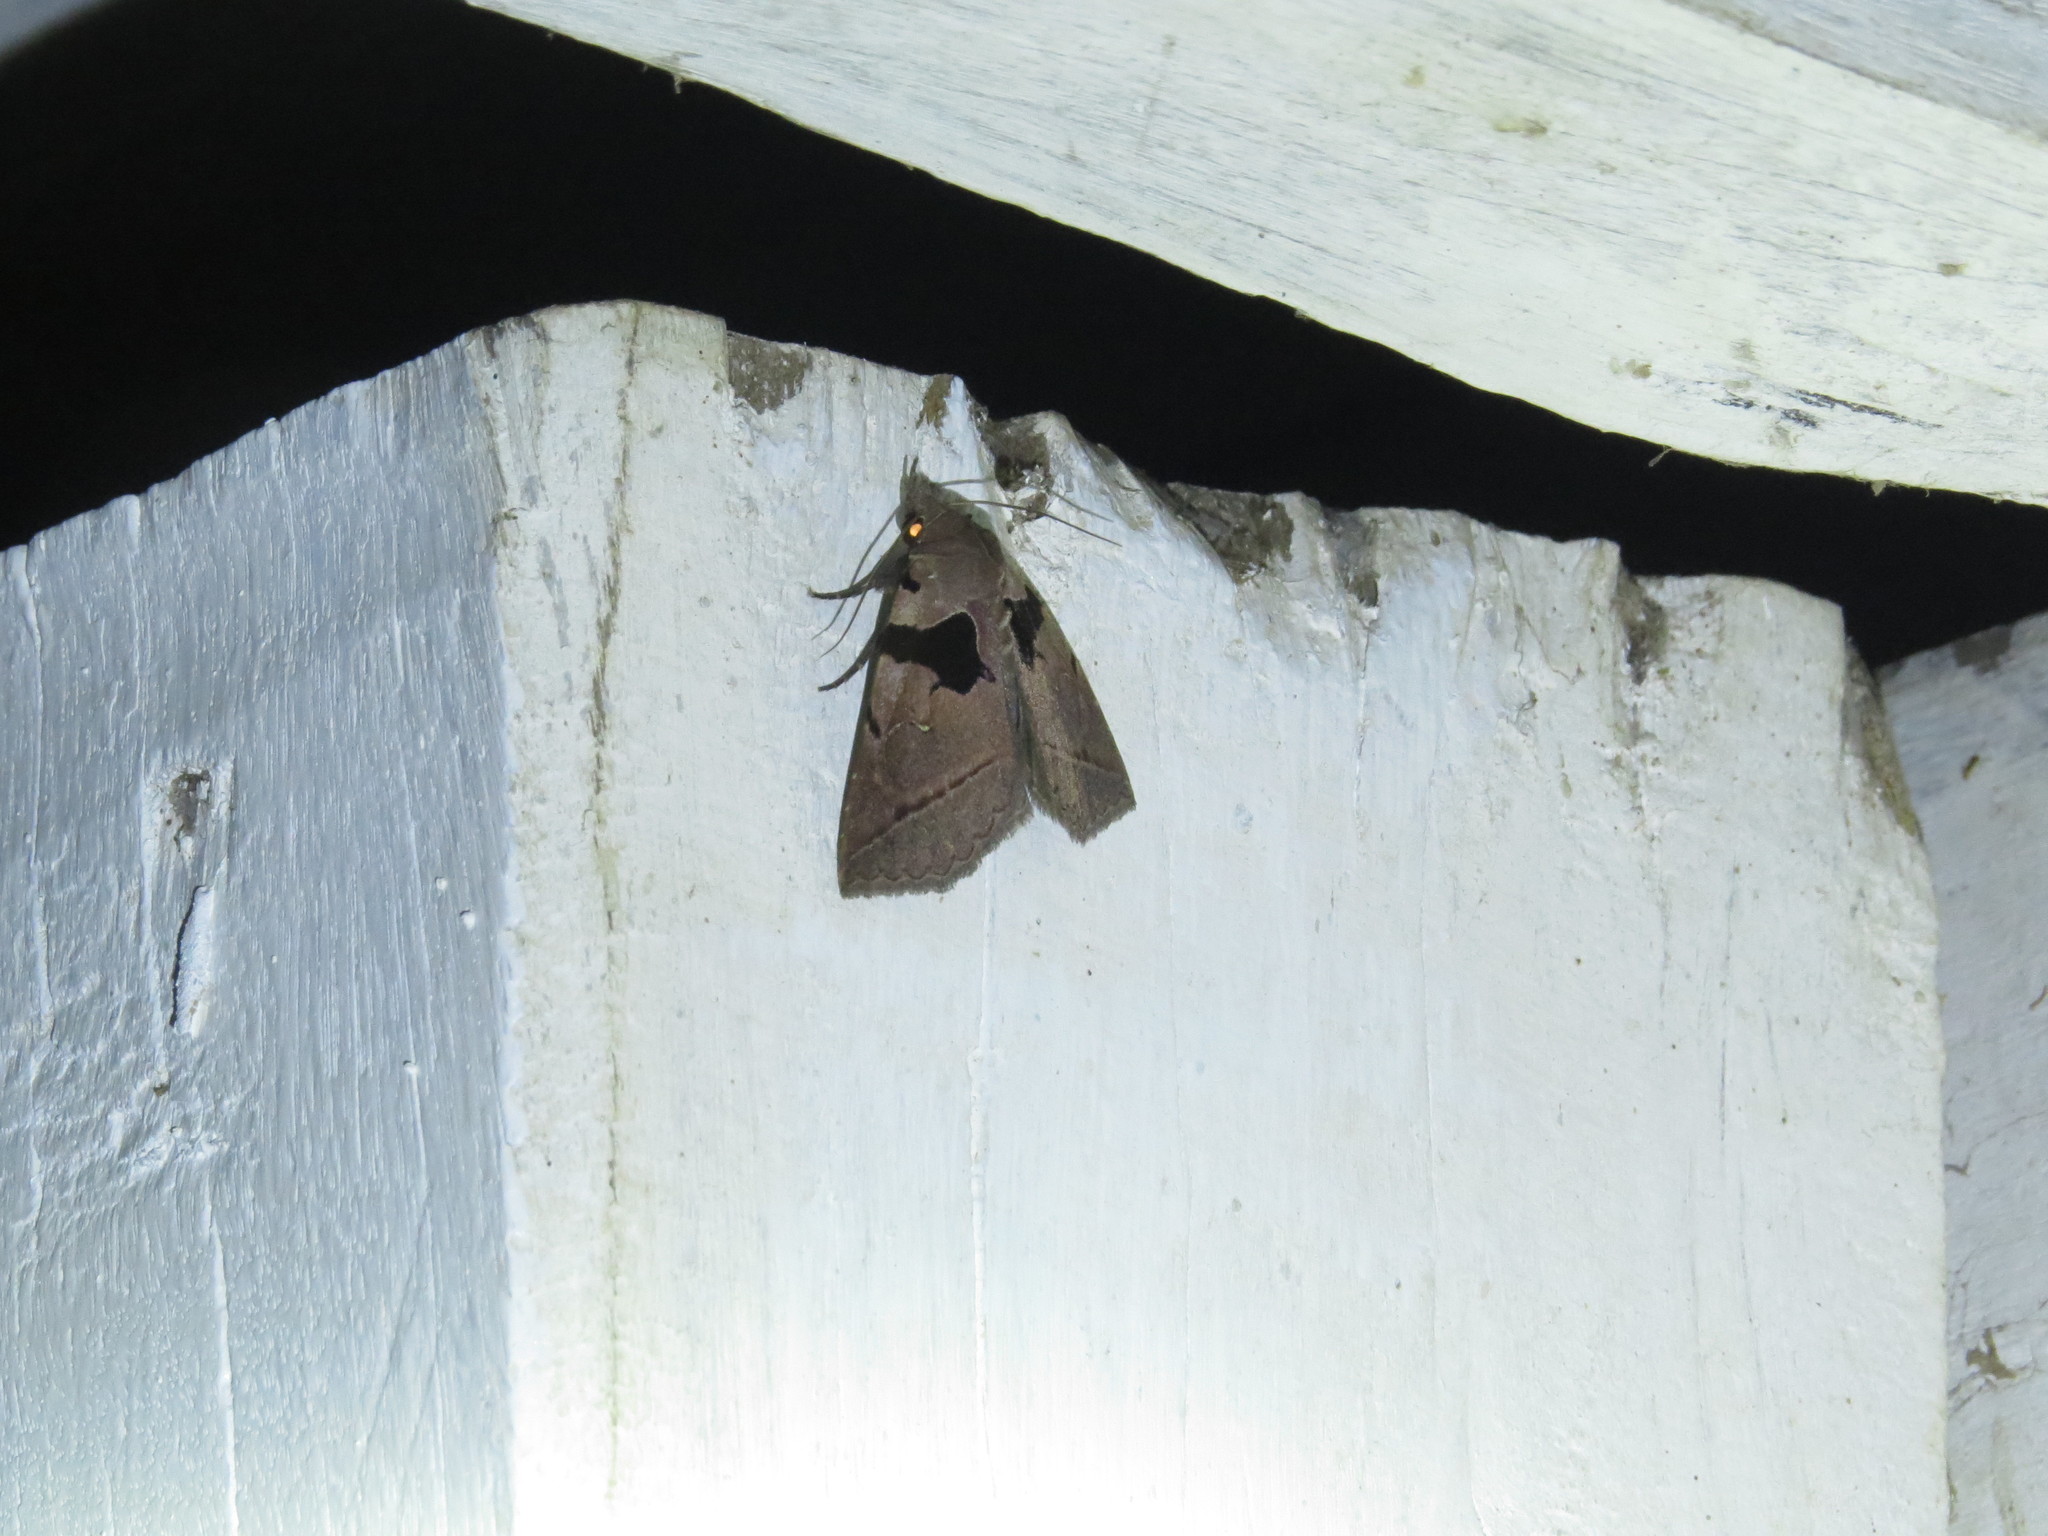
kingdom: Animalia
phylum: Arthropoda
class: Insecta
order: Lepidoptera
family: Erebidae
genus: Athyrma
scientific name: Athyrma tuberosa
